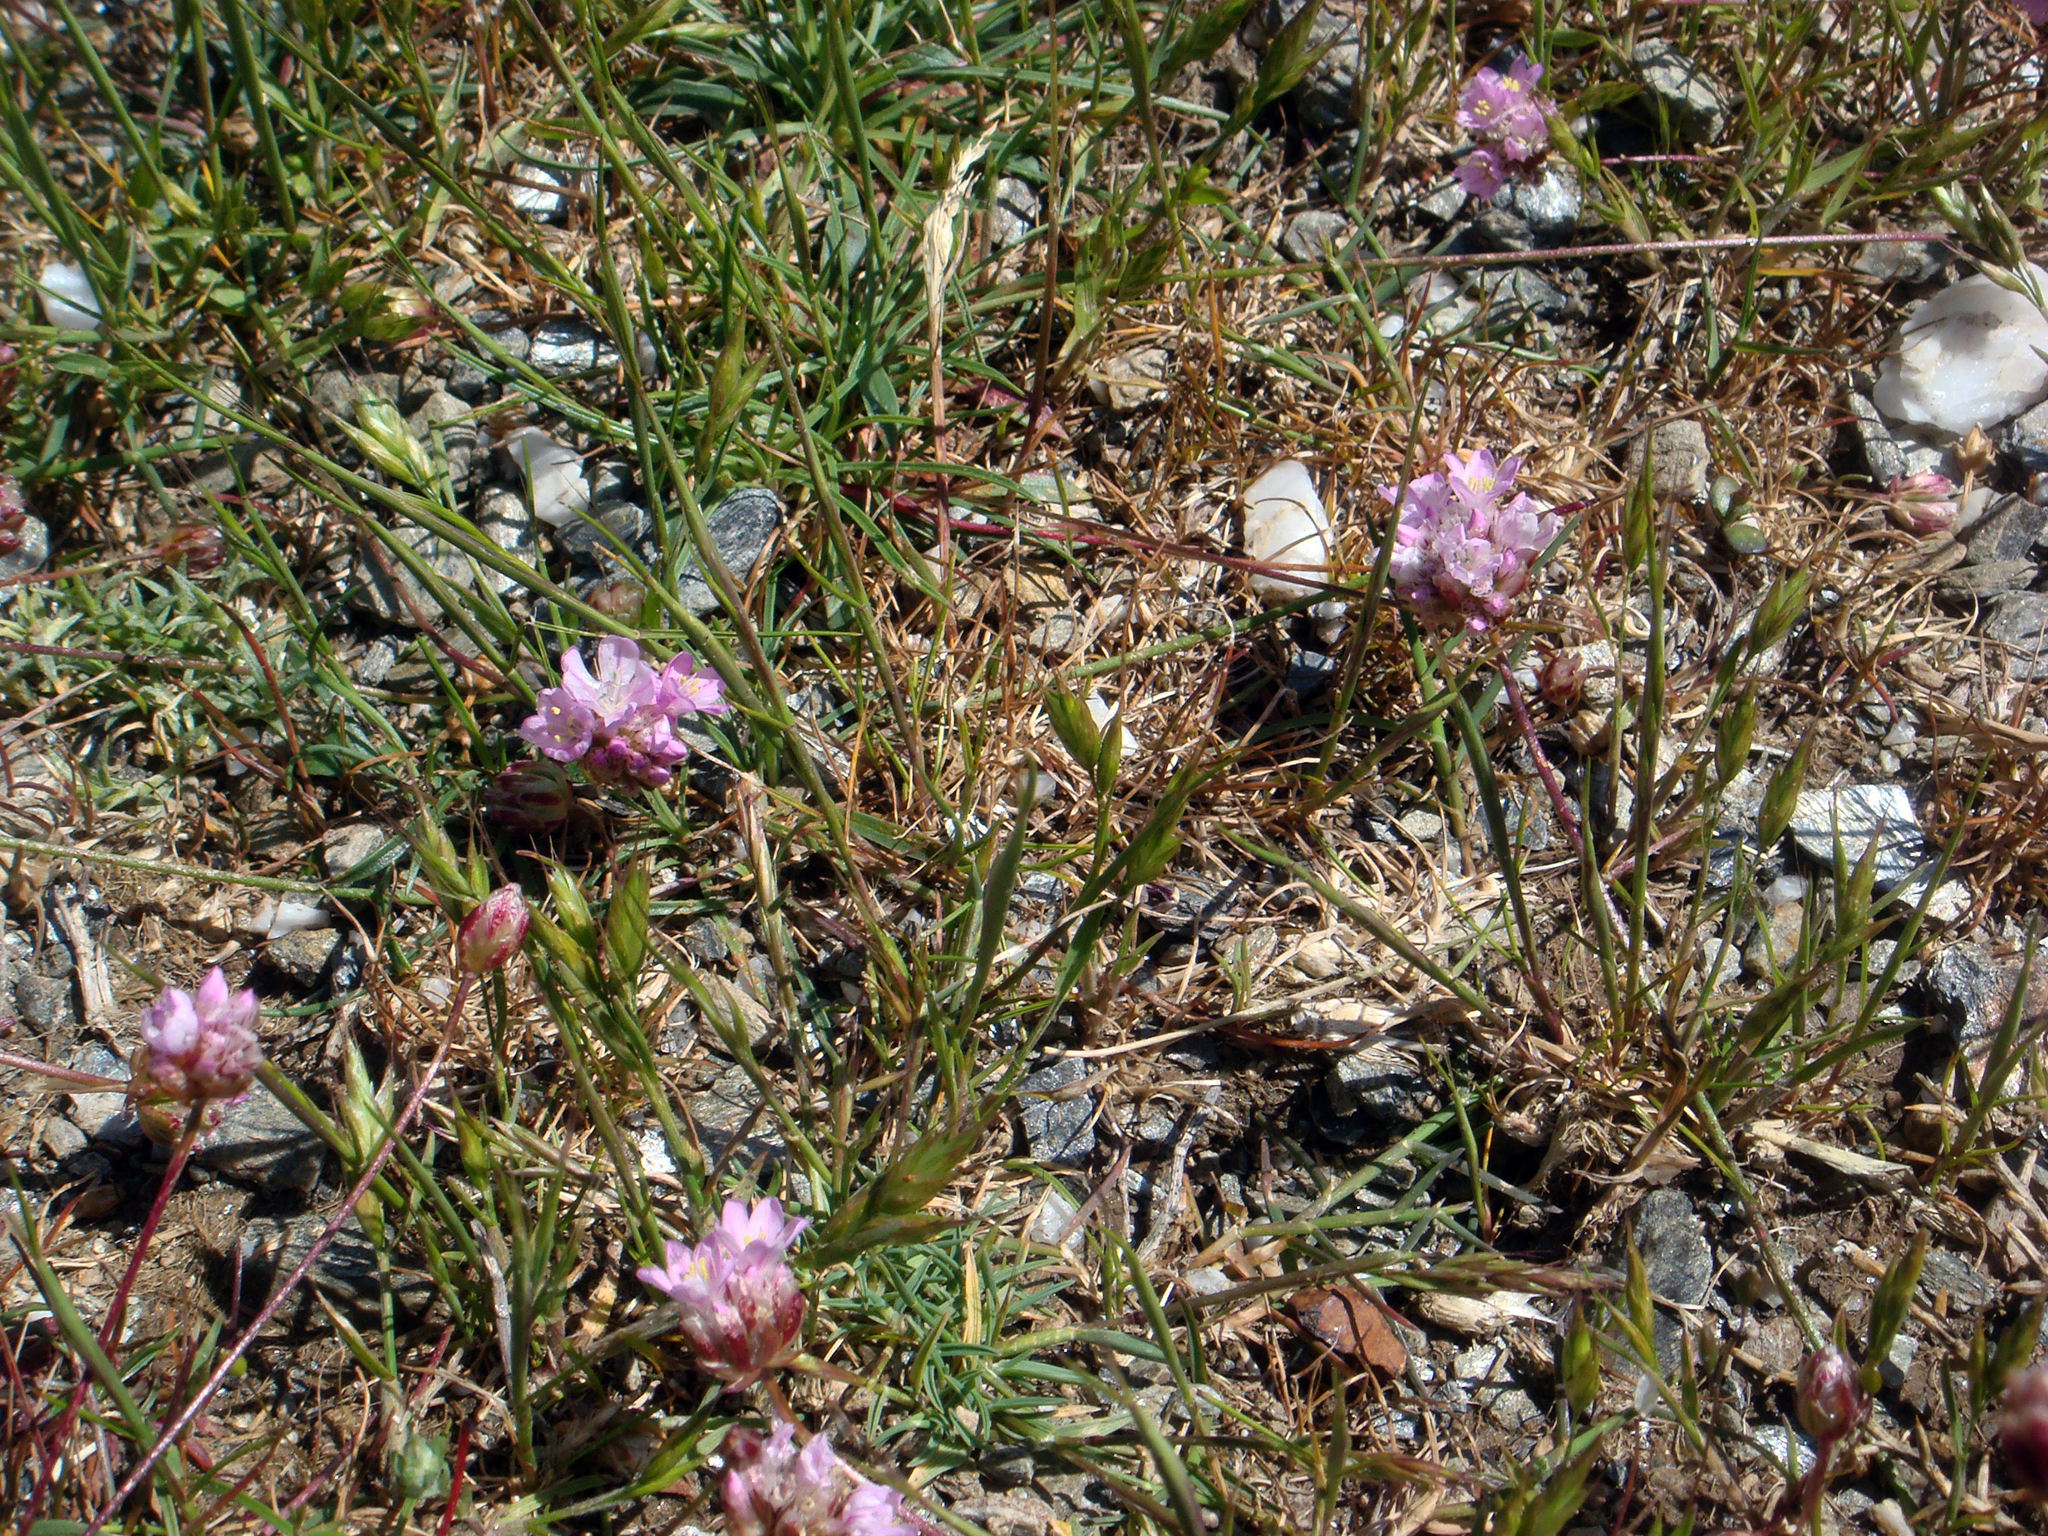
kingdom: Plantae
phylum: Tracheophyta
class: Magnoliopsida
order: Caryophyllales
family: Plumbaginaceae
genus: Armeria
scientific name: Armeria sardoa
